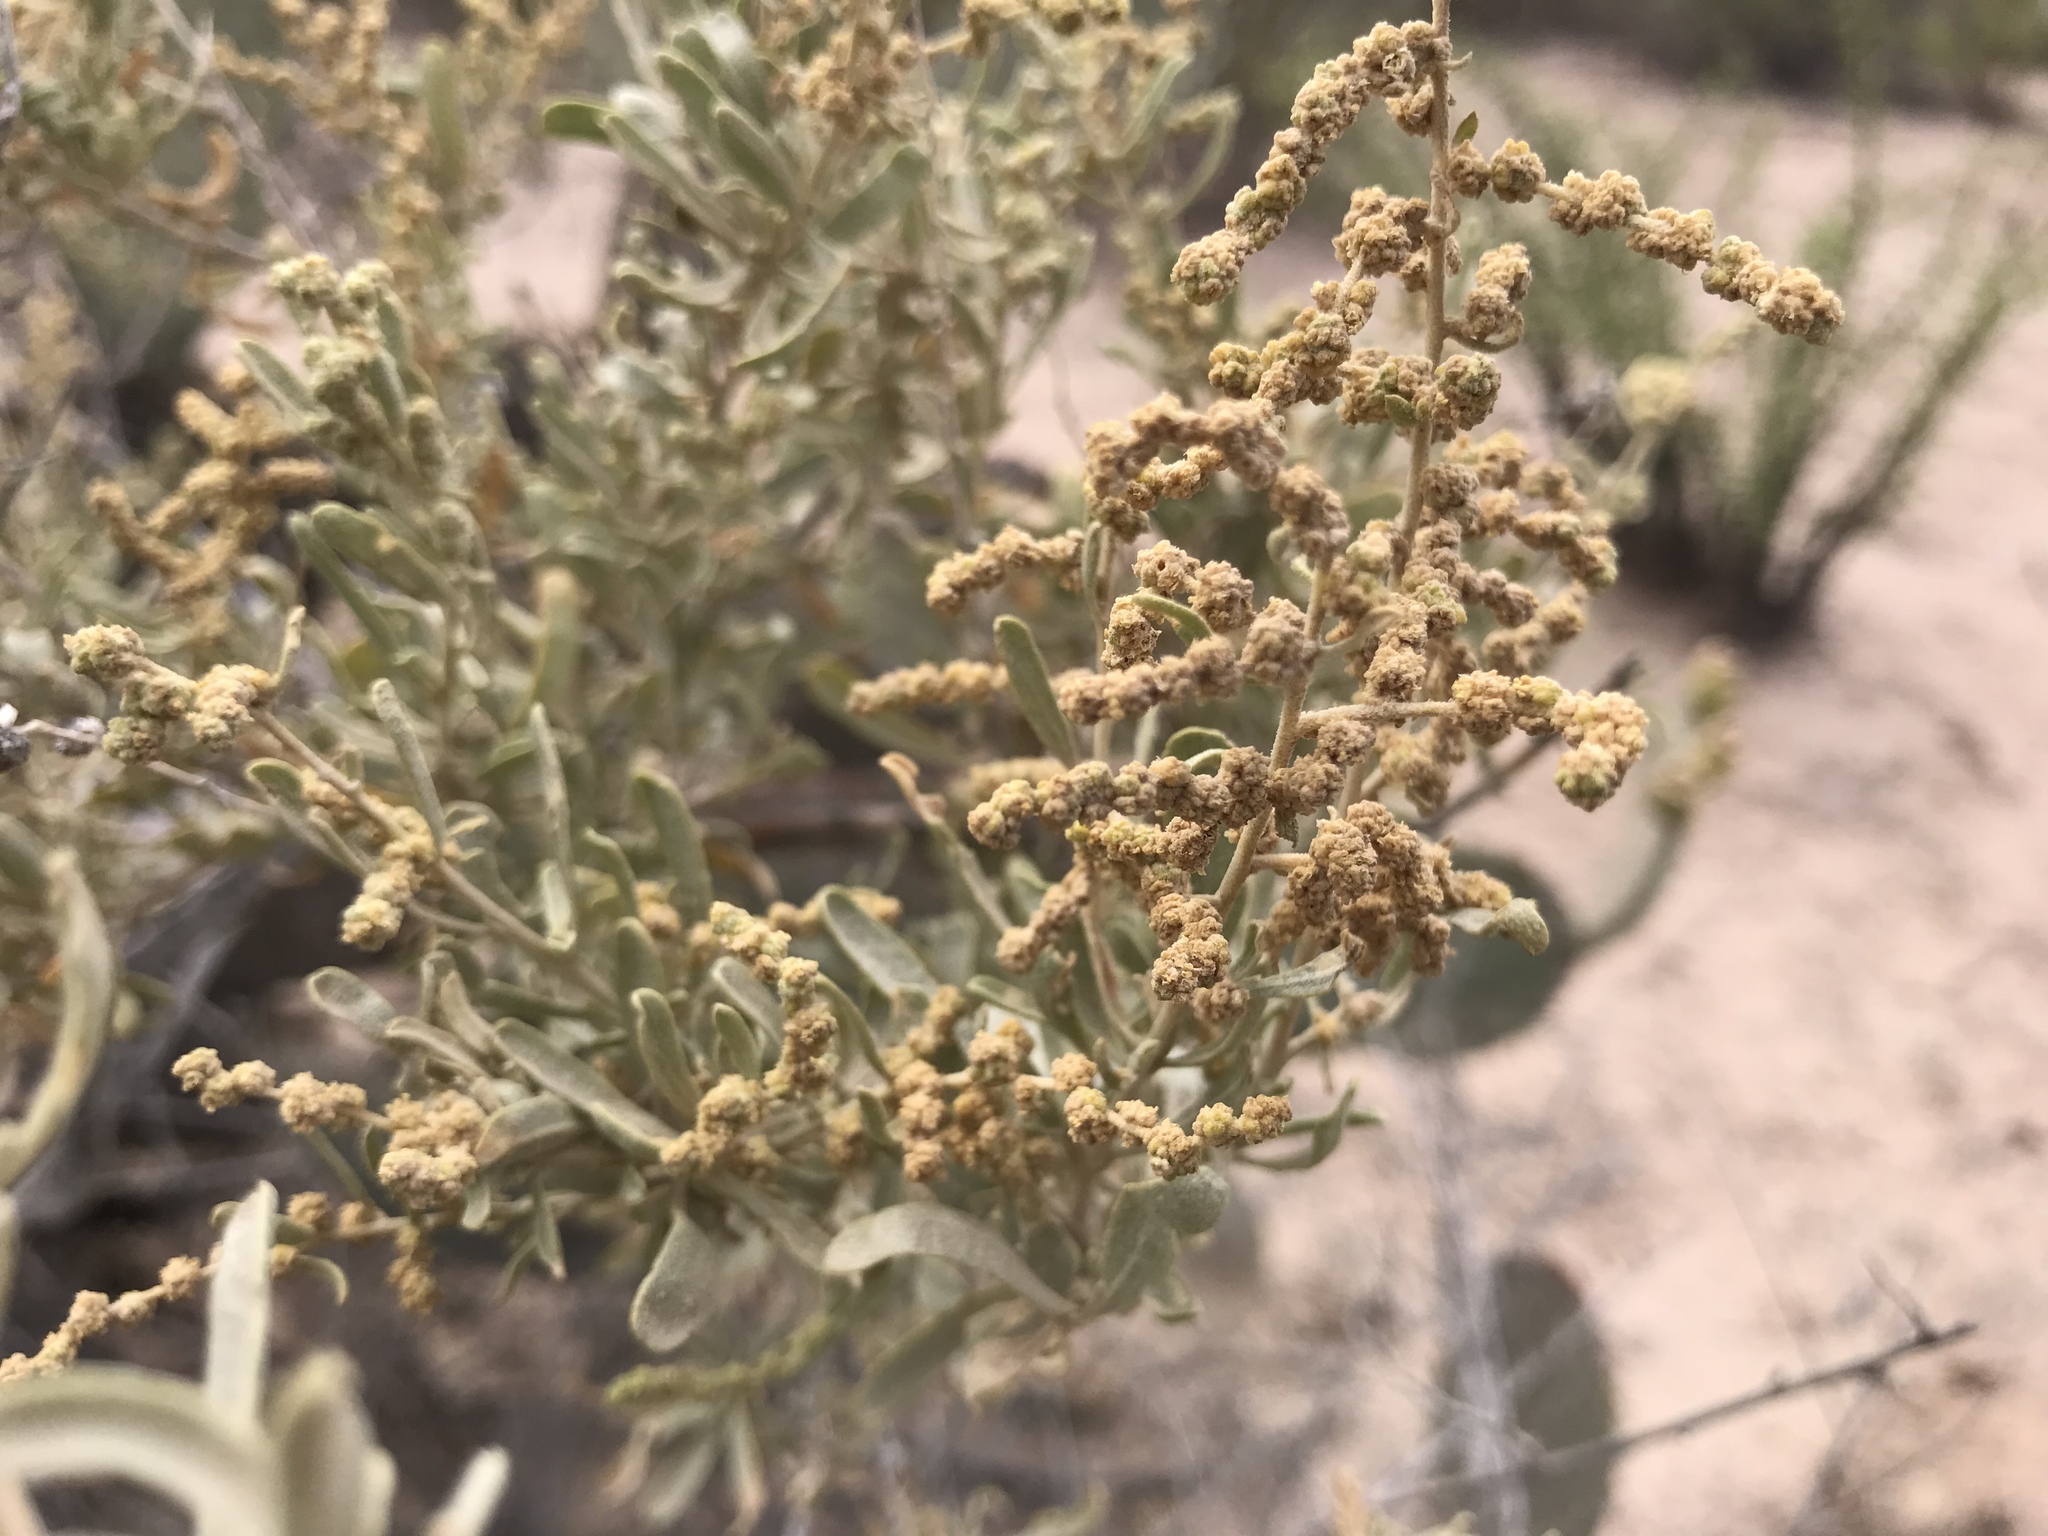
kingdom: Plantae
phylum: Tracheophyta
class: Magnoliopsida
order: Caryophyllales
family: Amaranthaceae
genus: Atriplex
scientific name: Atriplex canescens
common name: Four-wing saltbush
